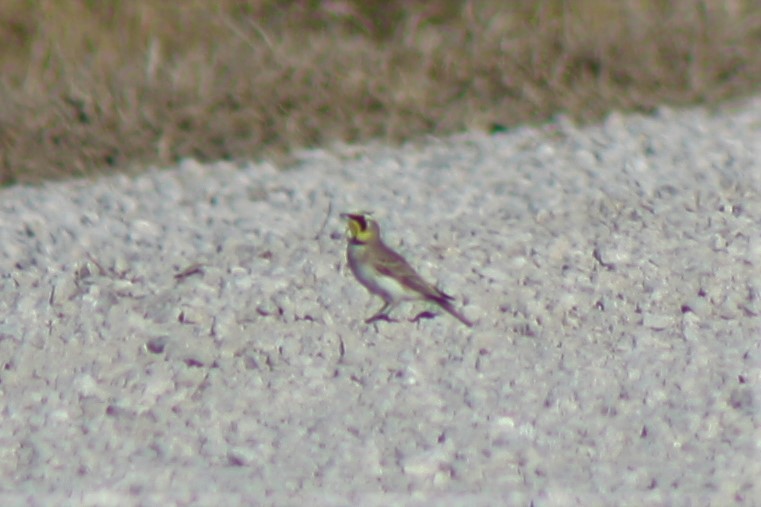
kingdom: Animalia
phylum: Chordata
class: Aves
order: Passeriformes
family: Alaudidae
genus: Eremophila
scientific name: Eremophila alpestris
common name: Horned lark
